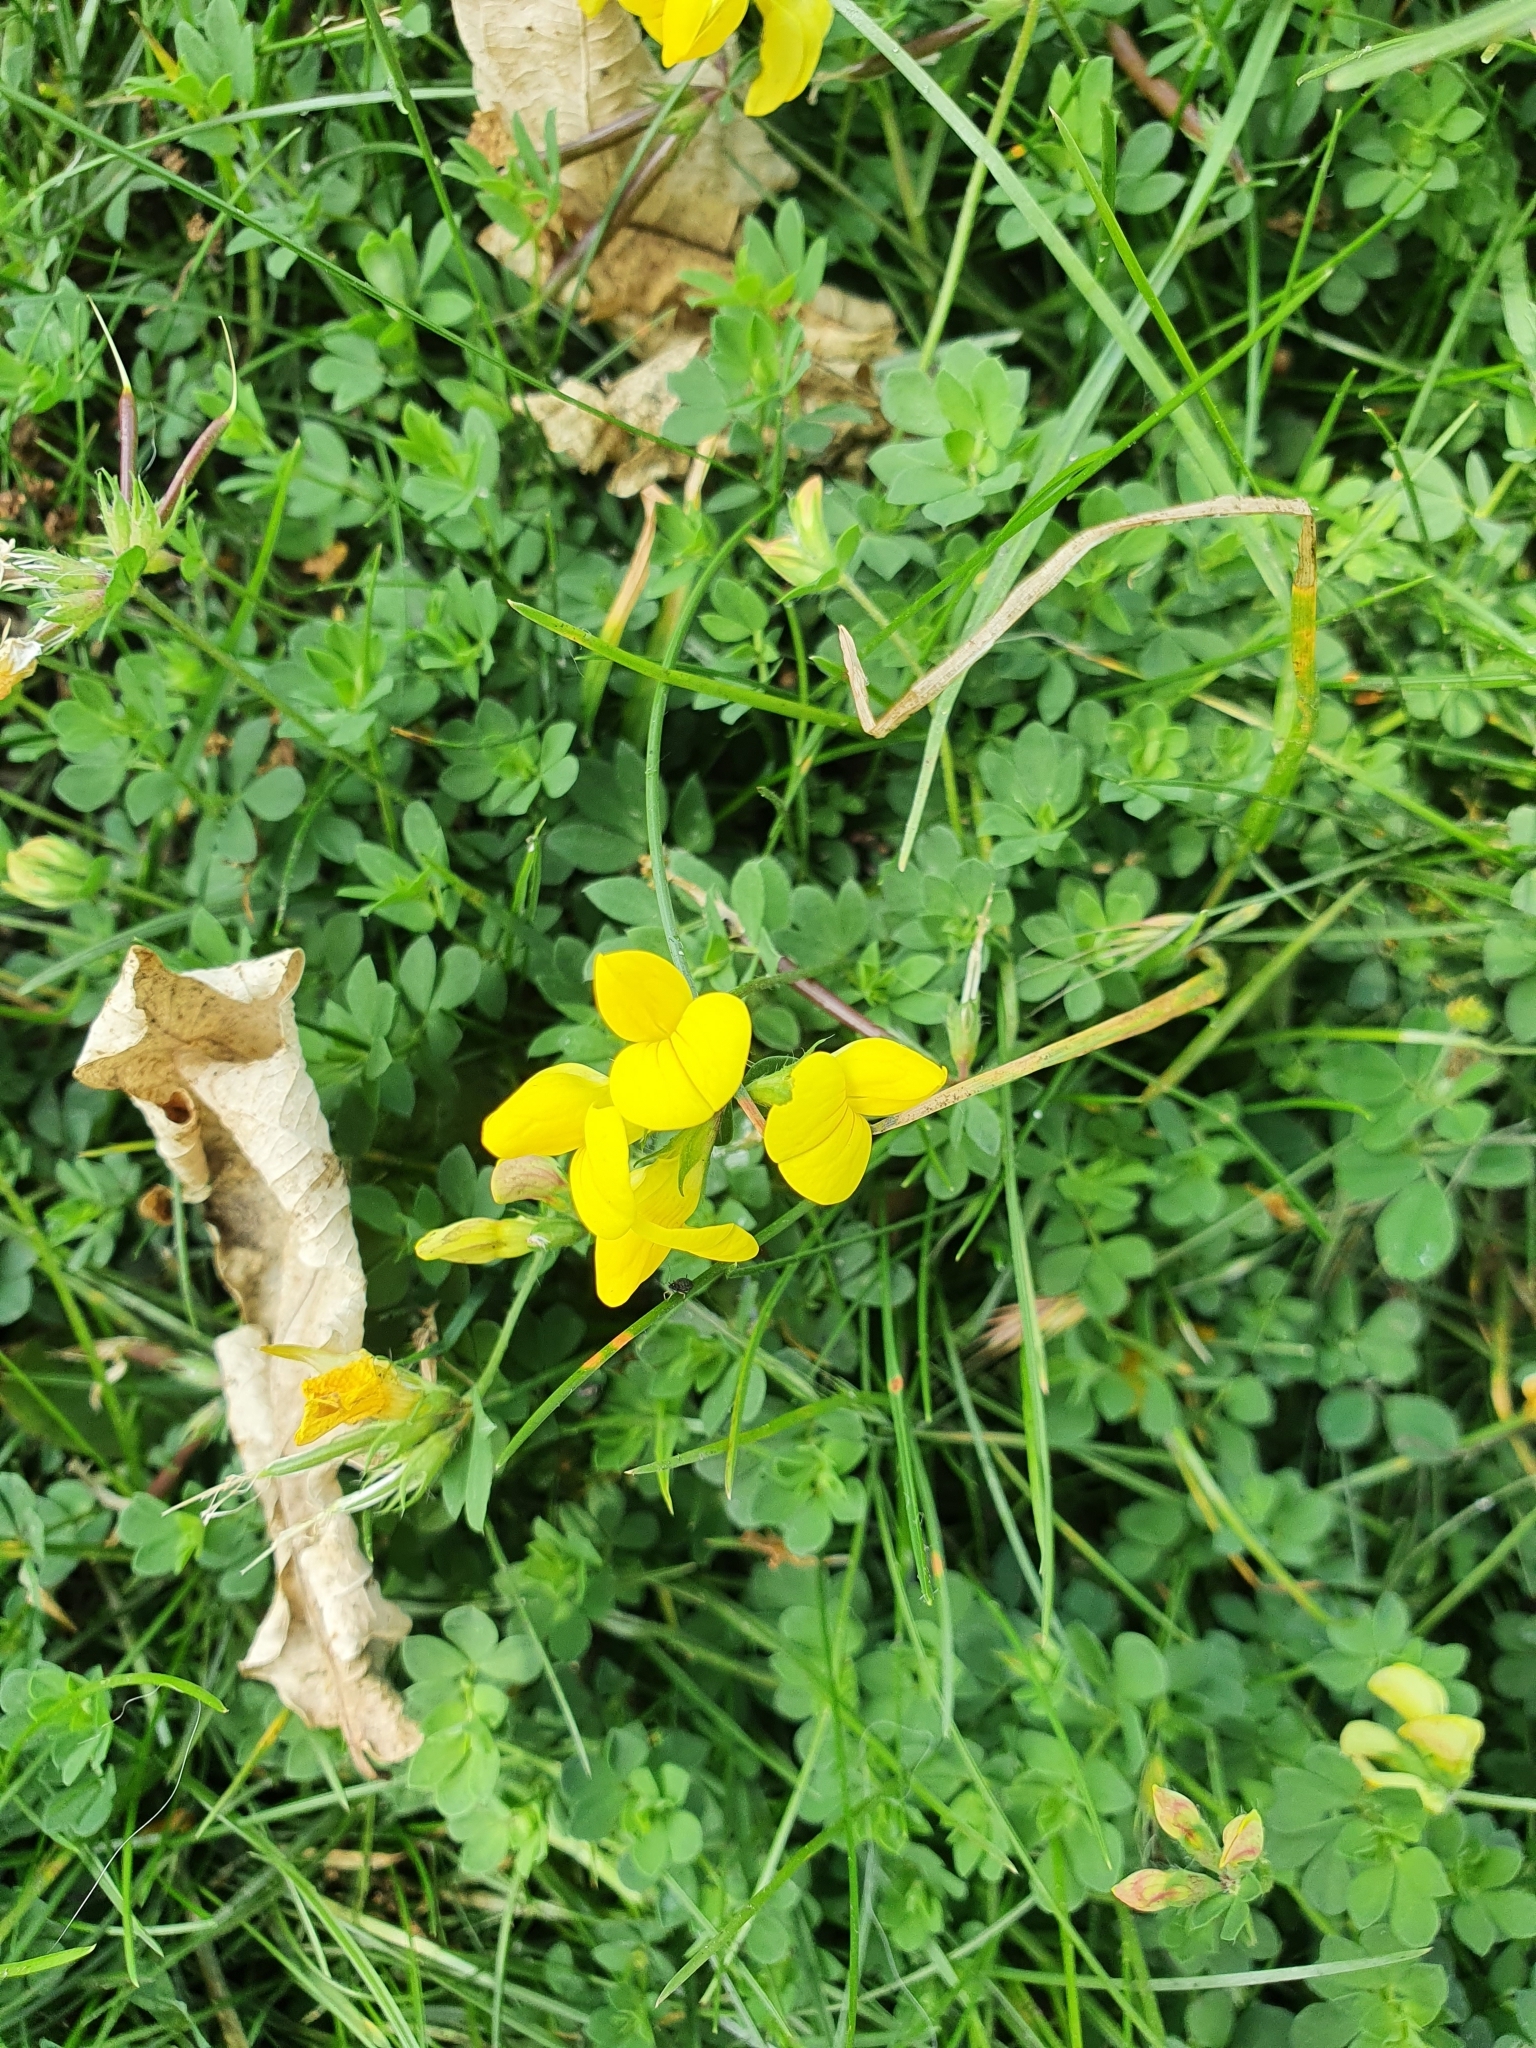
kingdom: Plantae
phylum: Tracheophyta
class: Magnoliopsida
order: Fabales
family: Fabaceae
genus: Lotus
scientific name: Lotus corniculatus
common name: Common bird's-foot-trefoil
